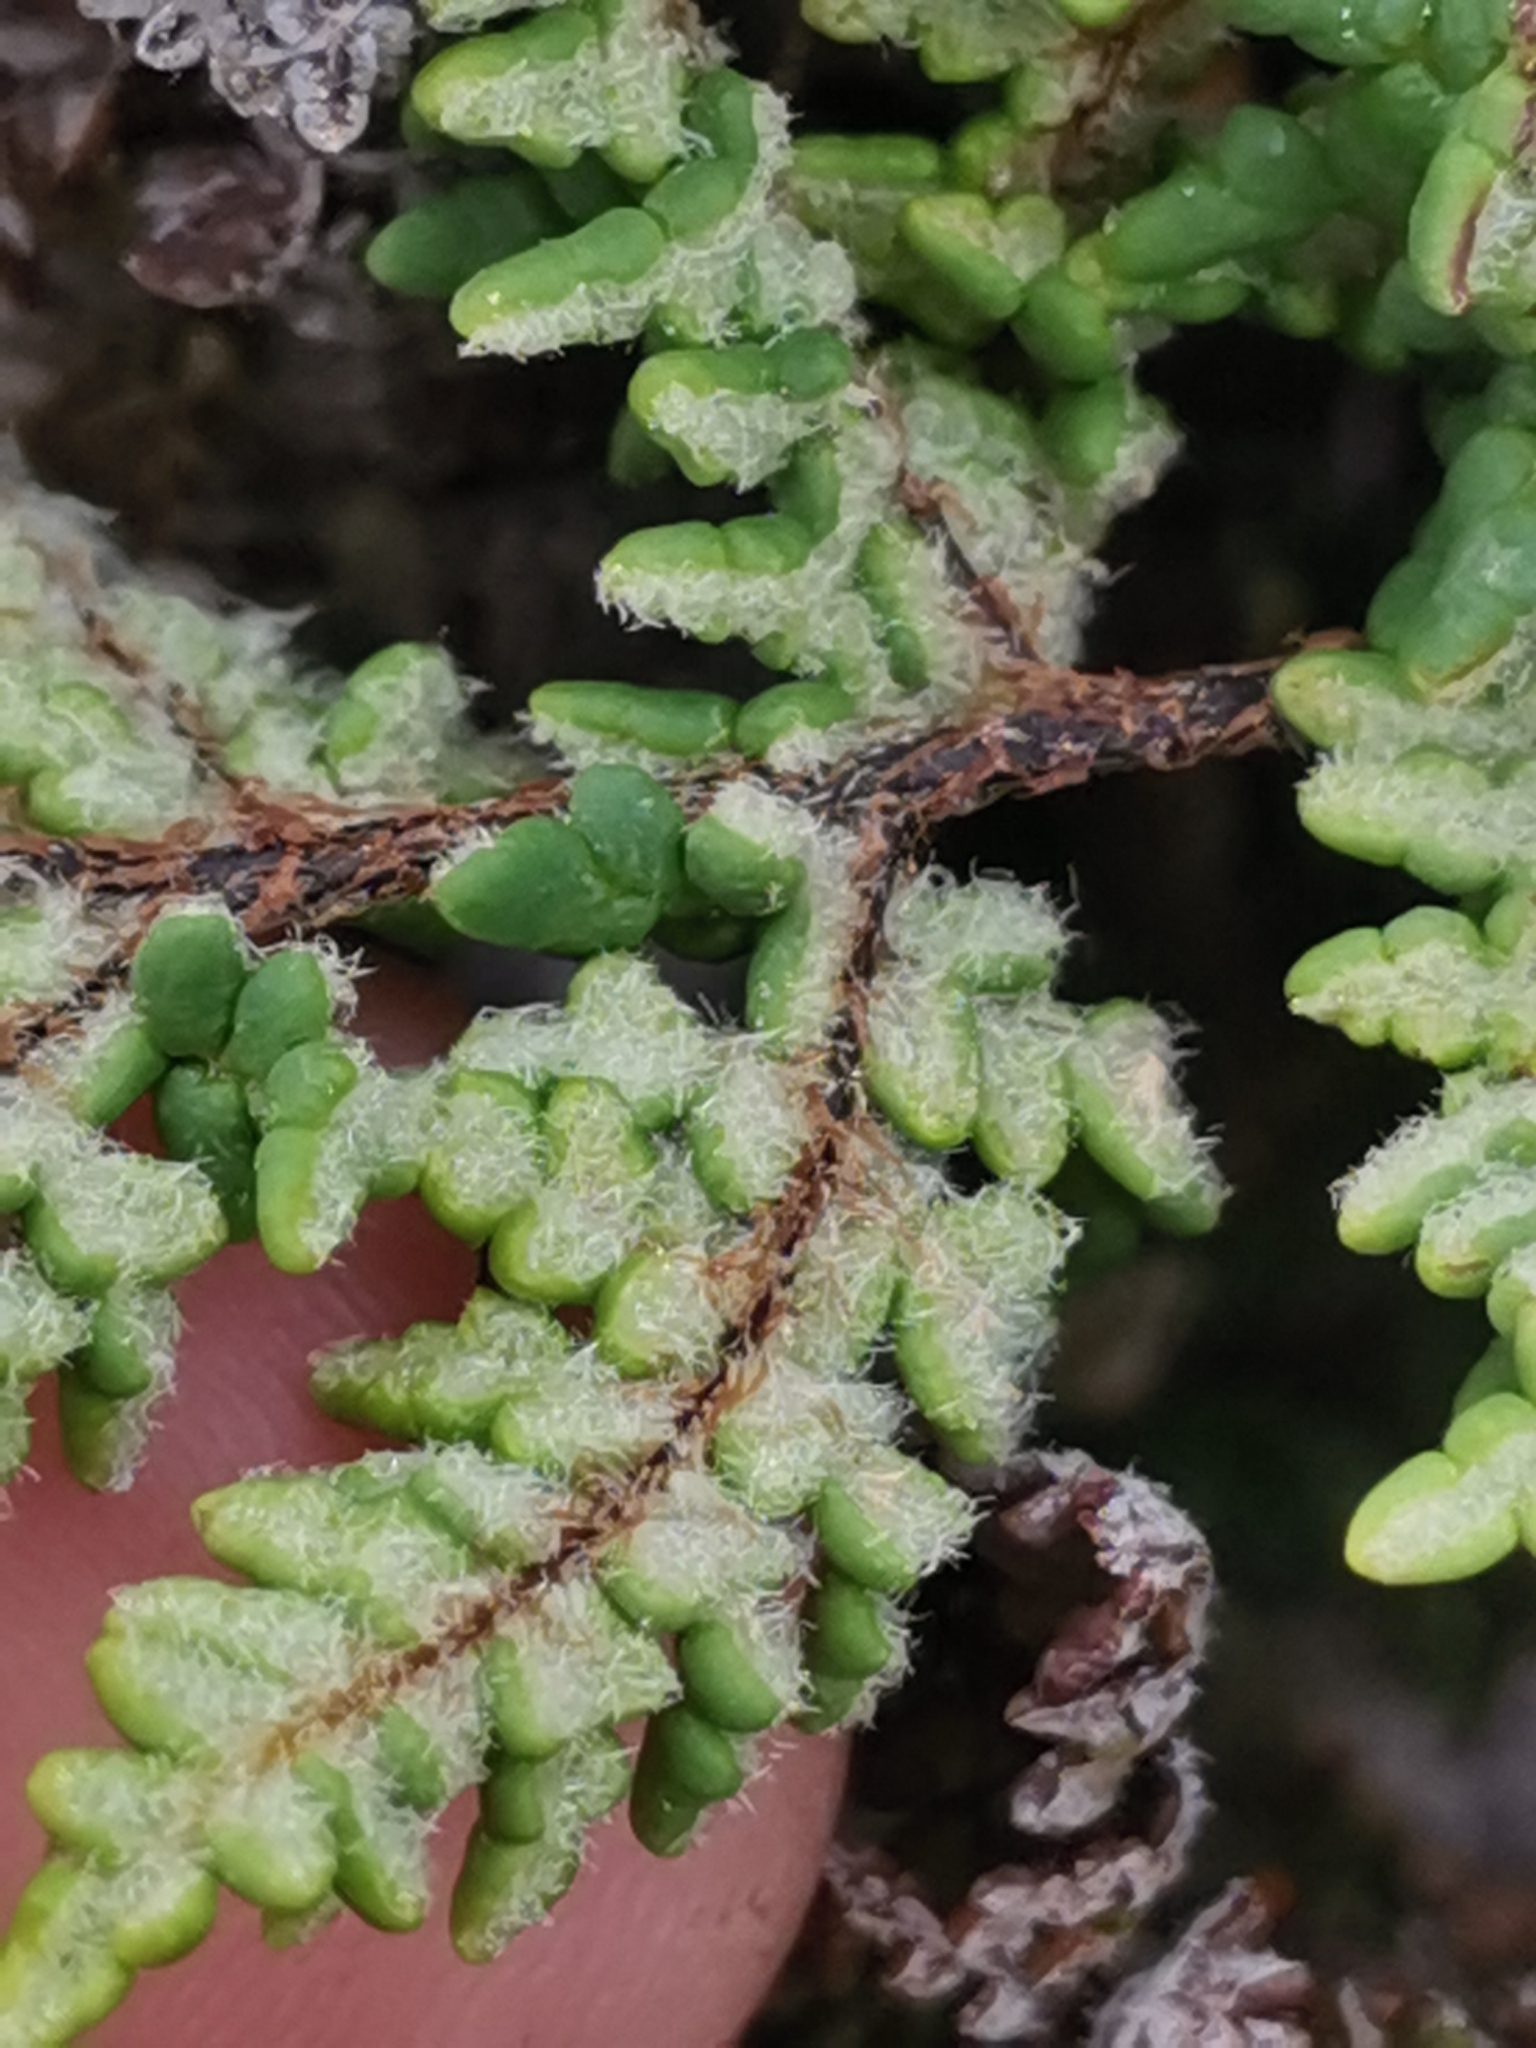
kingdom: Plantae
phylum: Tracheophyta
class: Polypodiopsida
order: Polypodiales
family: Pteridaceae
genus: Oeosporangium
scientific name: Oeosporangium pteridioides
